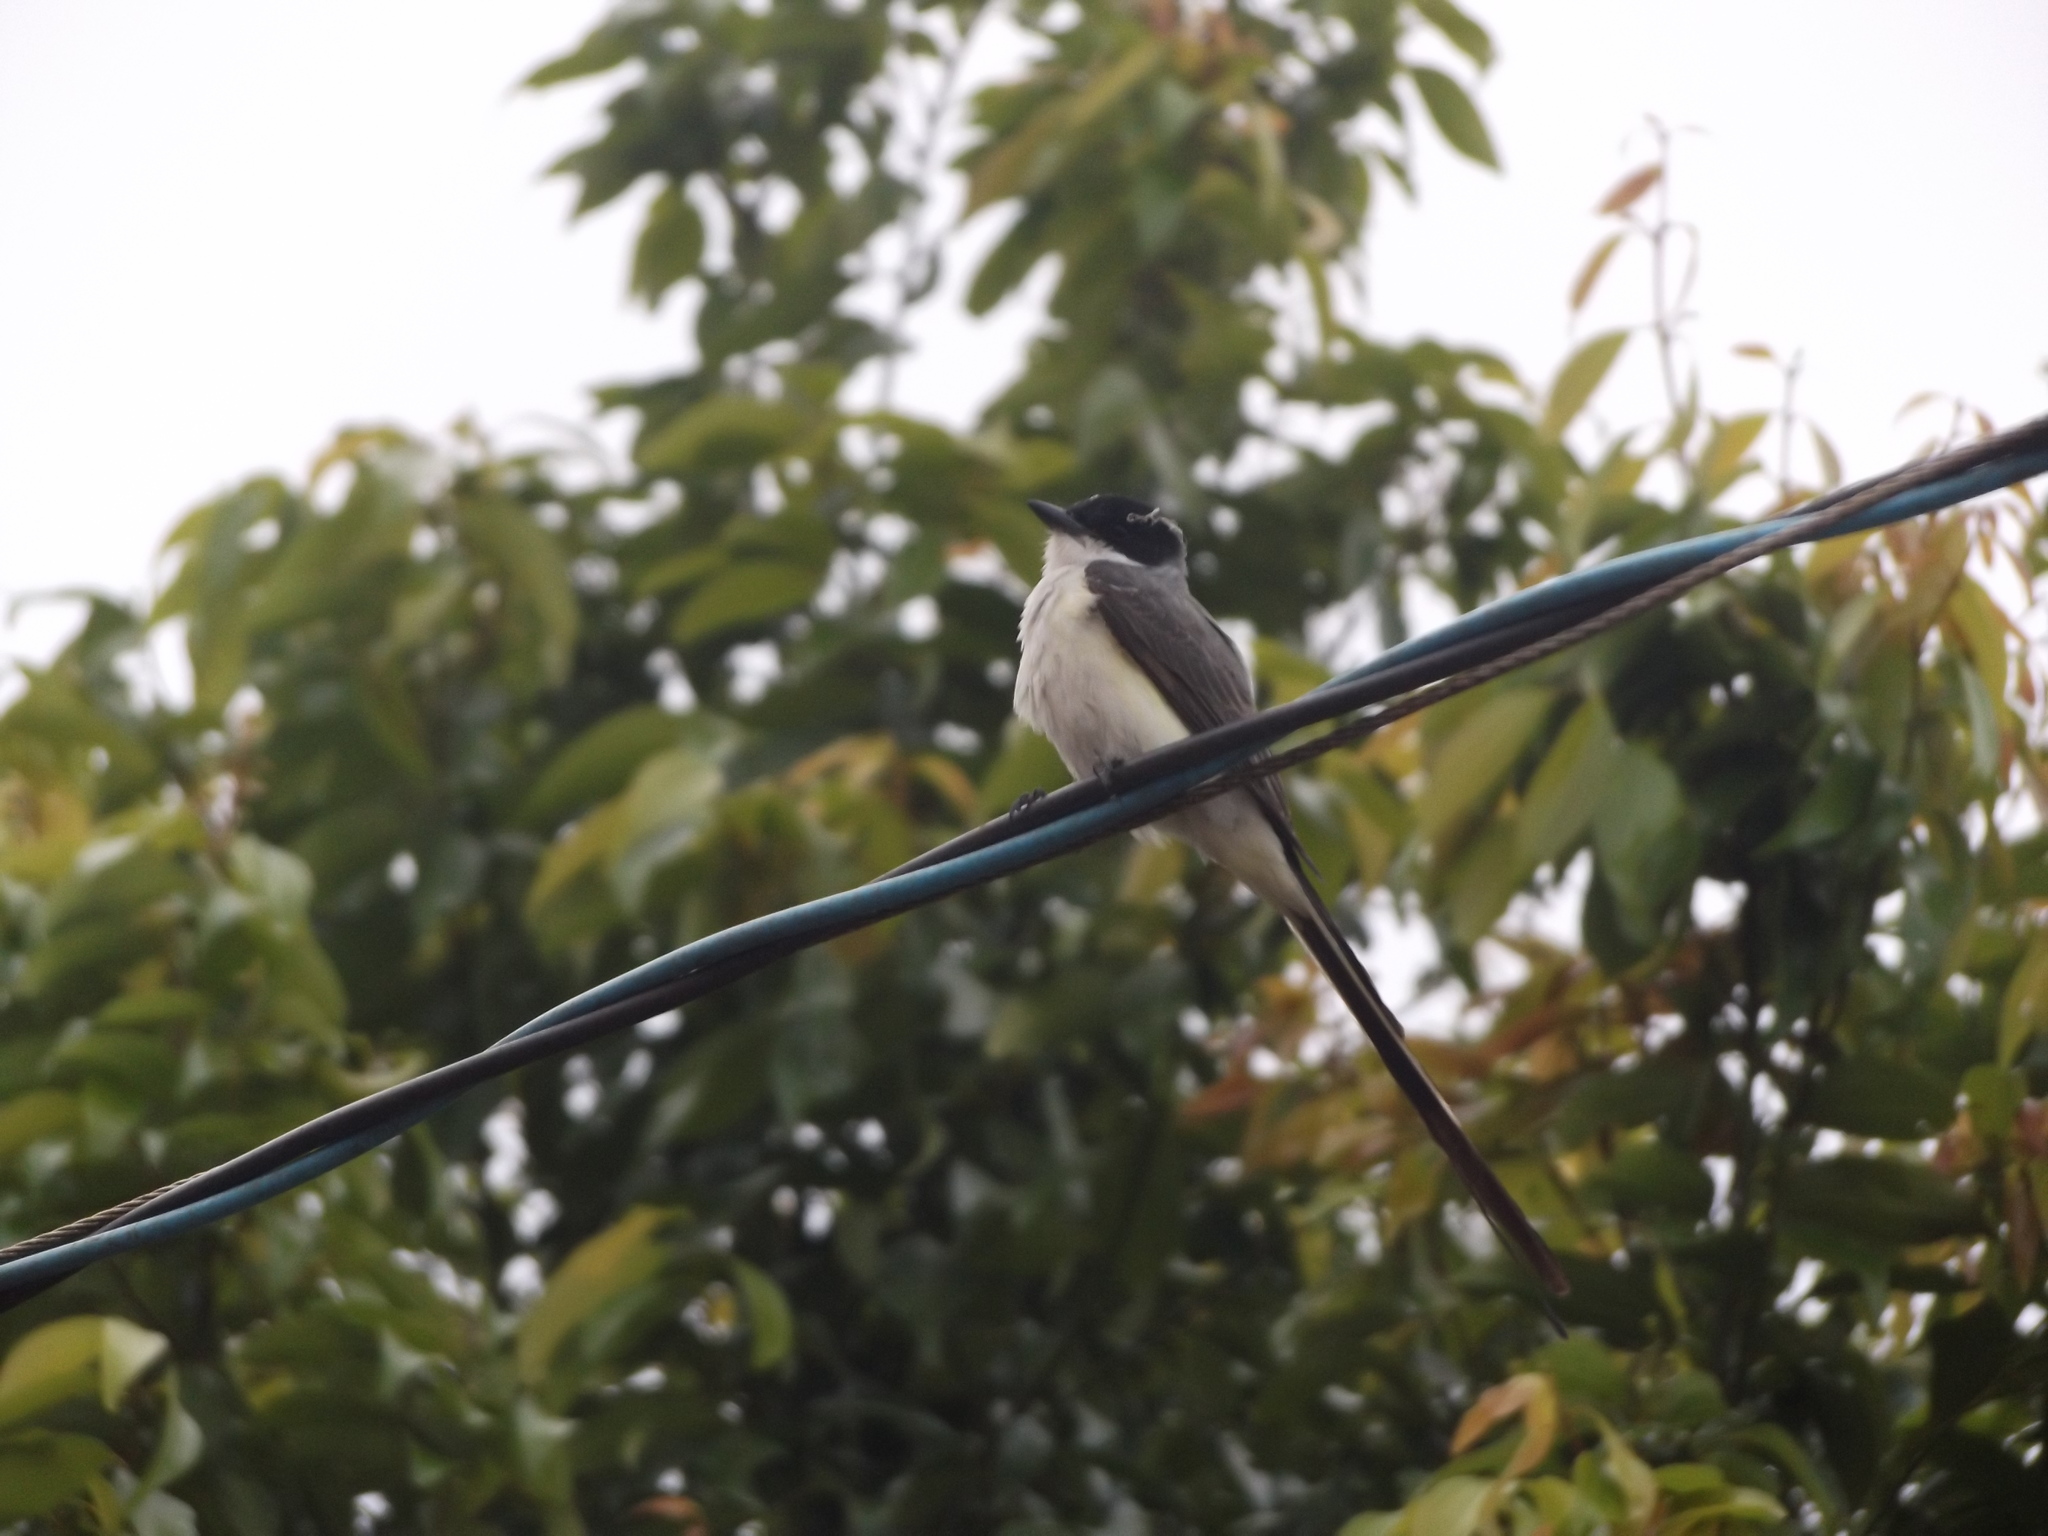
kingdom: Animalia
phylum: Chordata
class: Aves
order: Passeriformes
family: Tyrannidae
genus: Tyrannus
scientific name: Tyrannus savana
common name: Fork-tailed flycatcher
